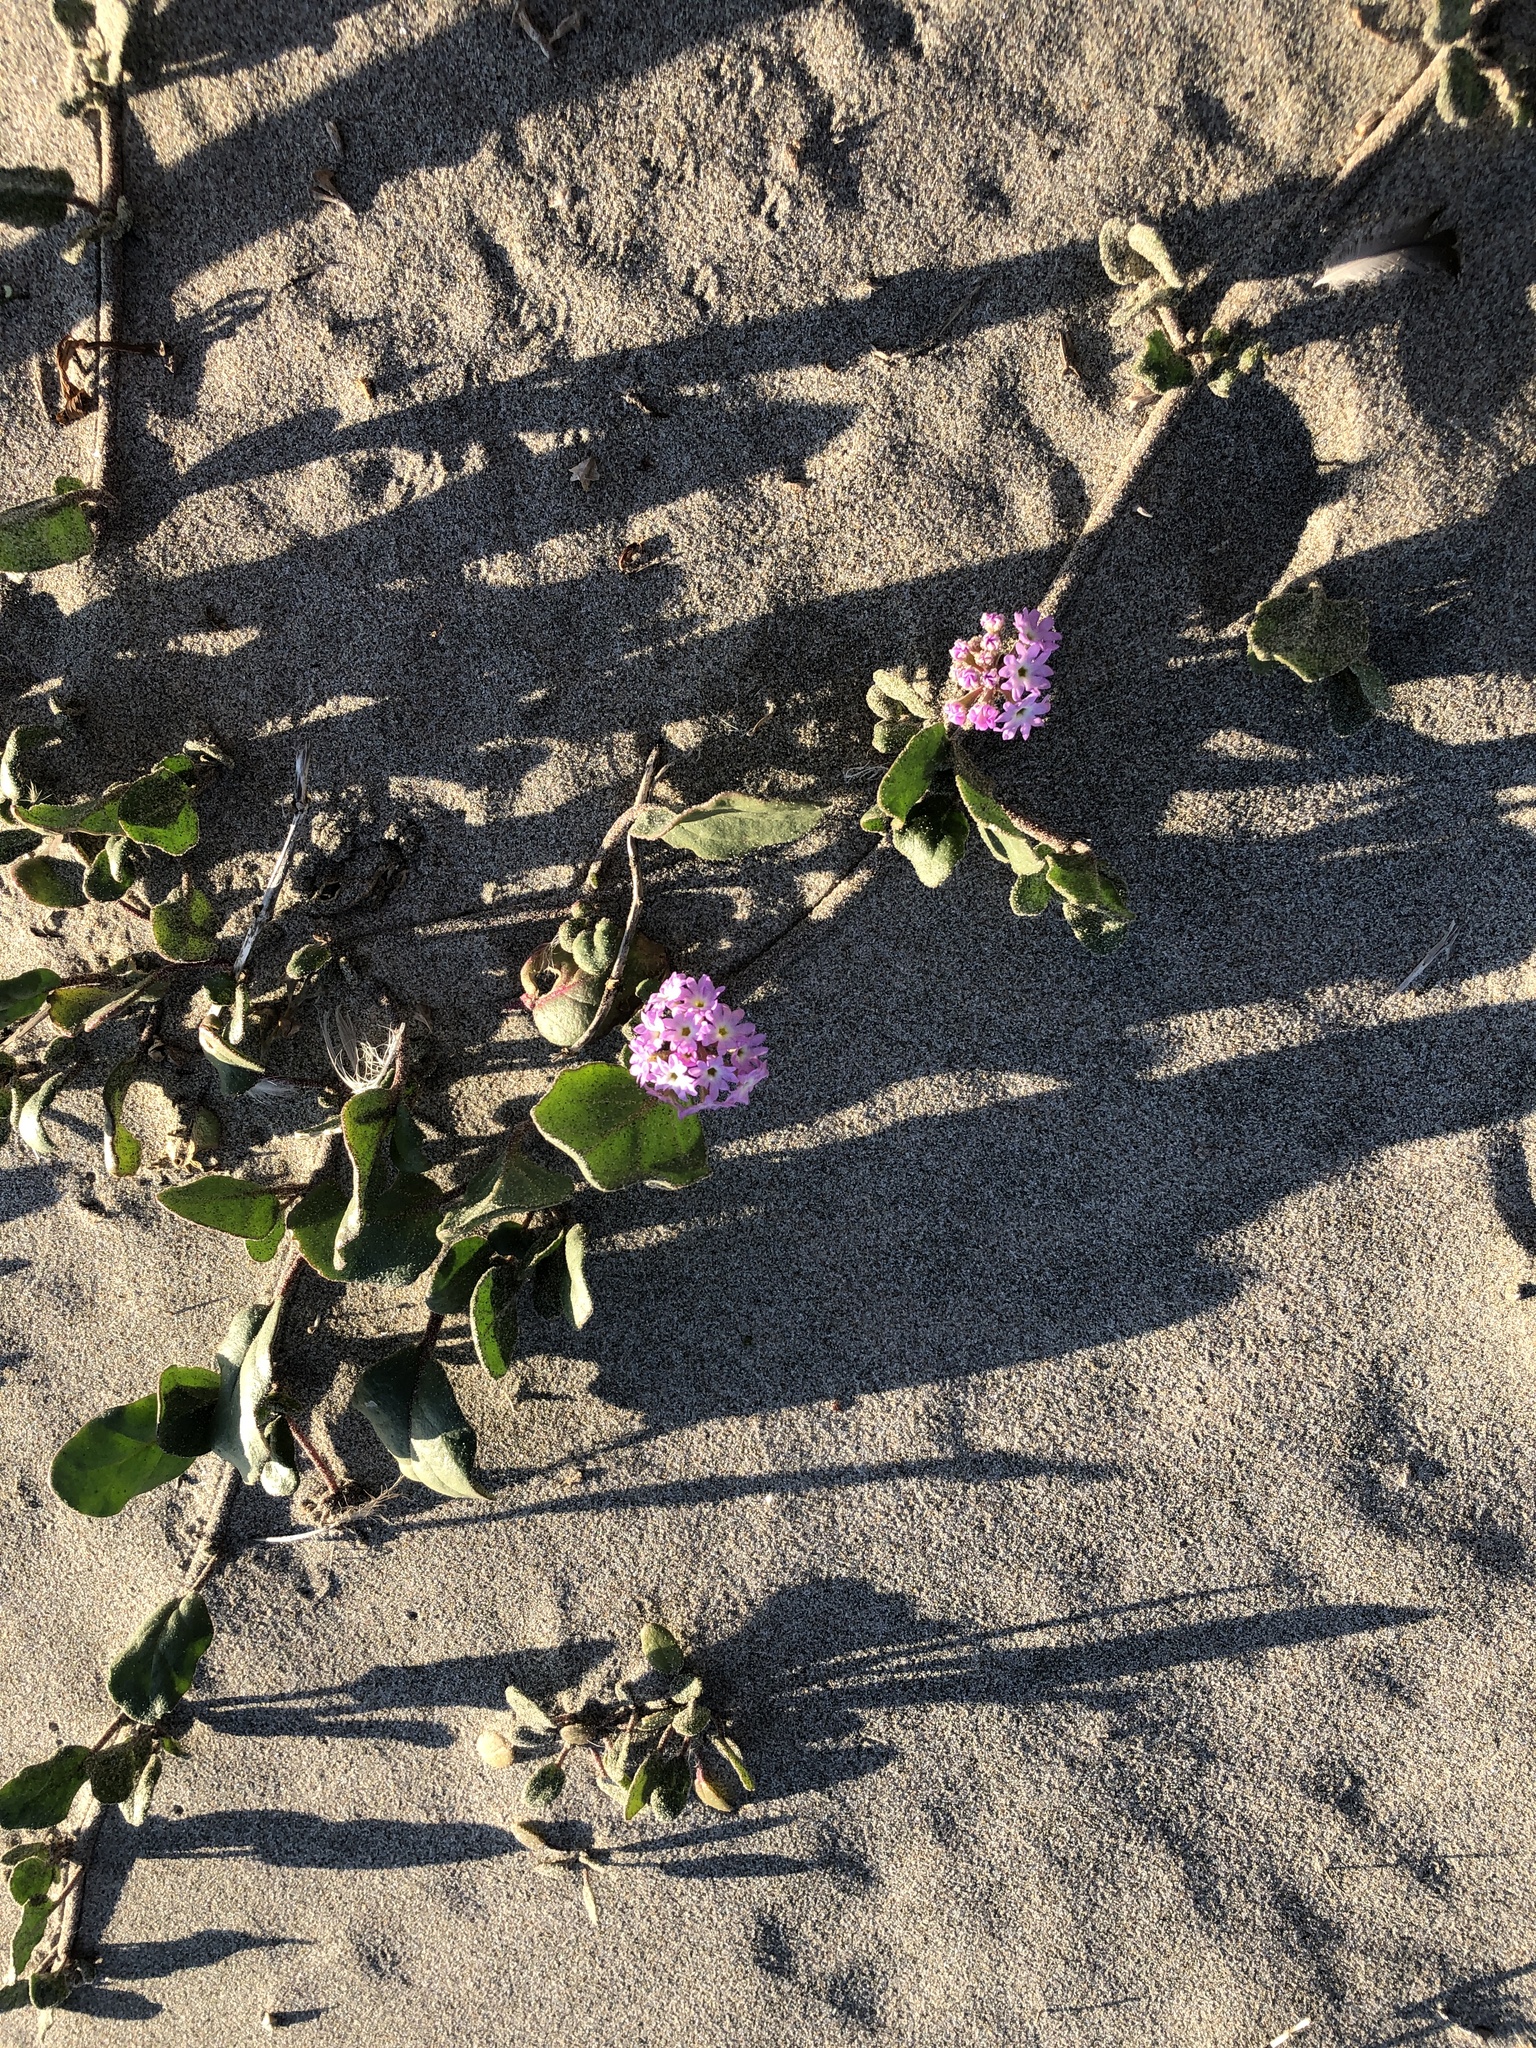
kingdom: Plantae
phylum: Tracheophyta
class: Magnoliopsida
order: Caryophyllales
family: Nyctaginaceae
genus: Abronia
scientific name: Abronia
